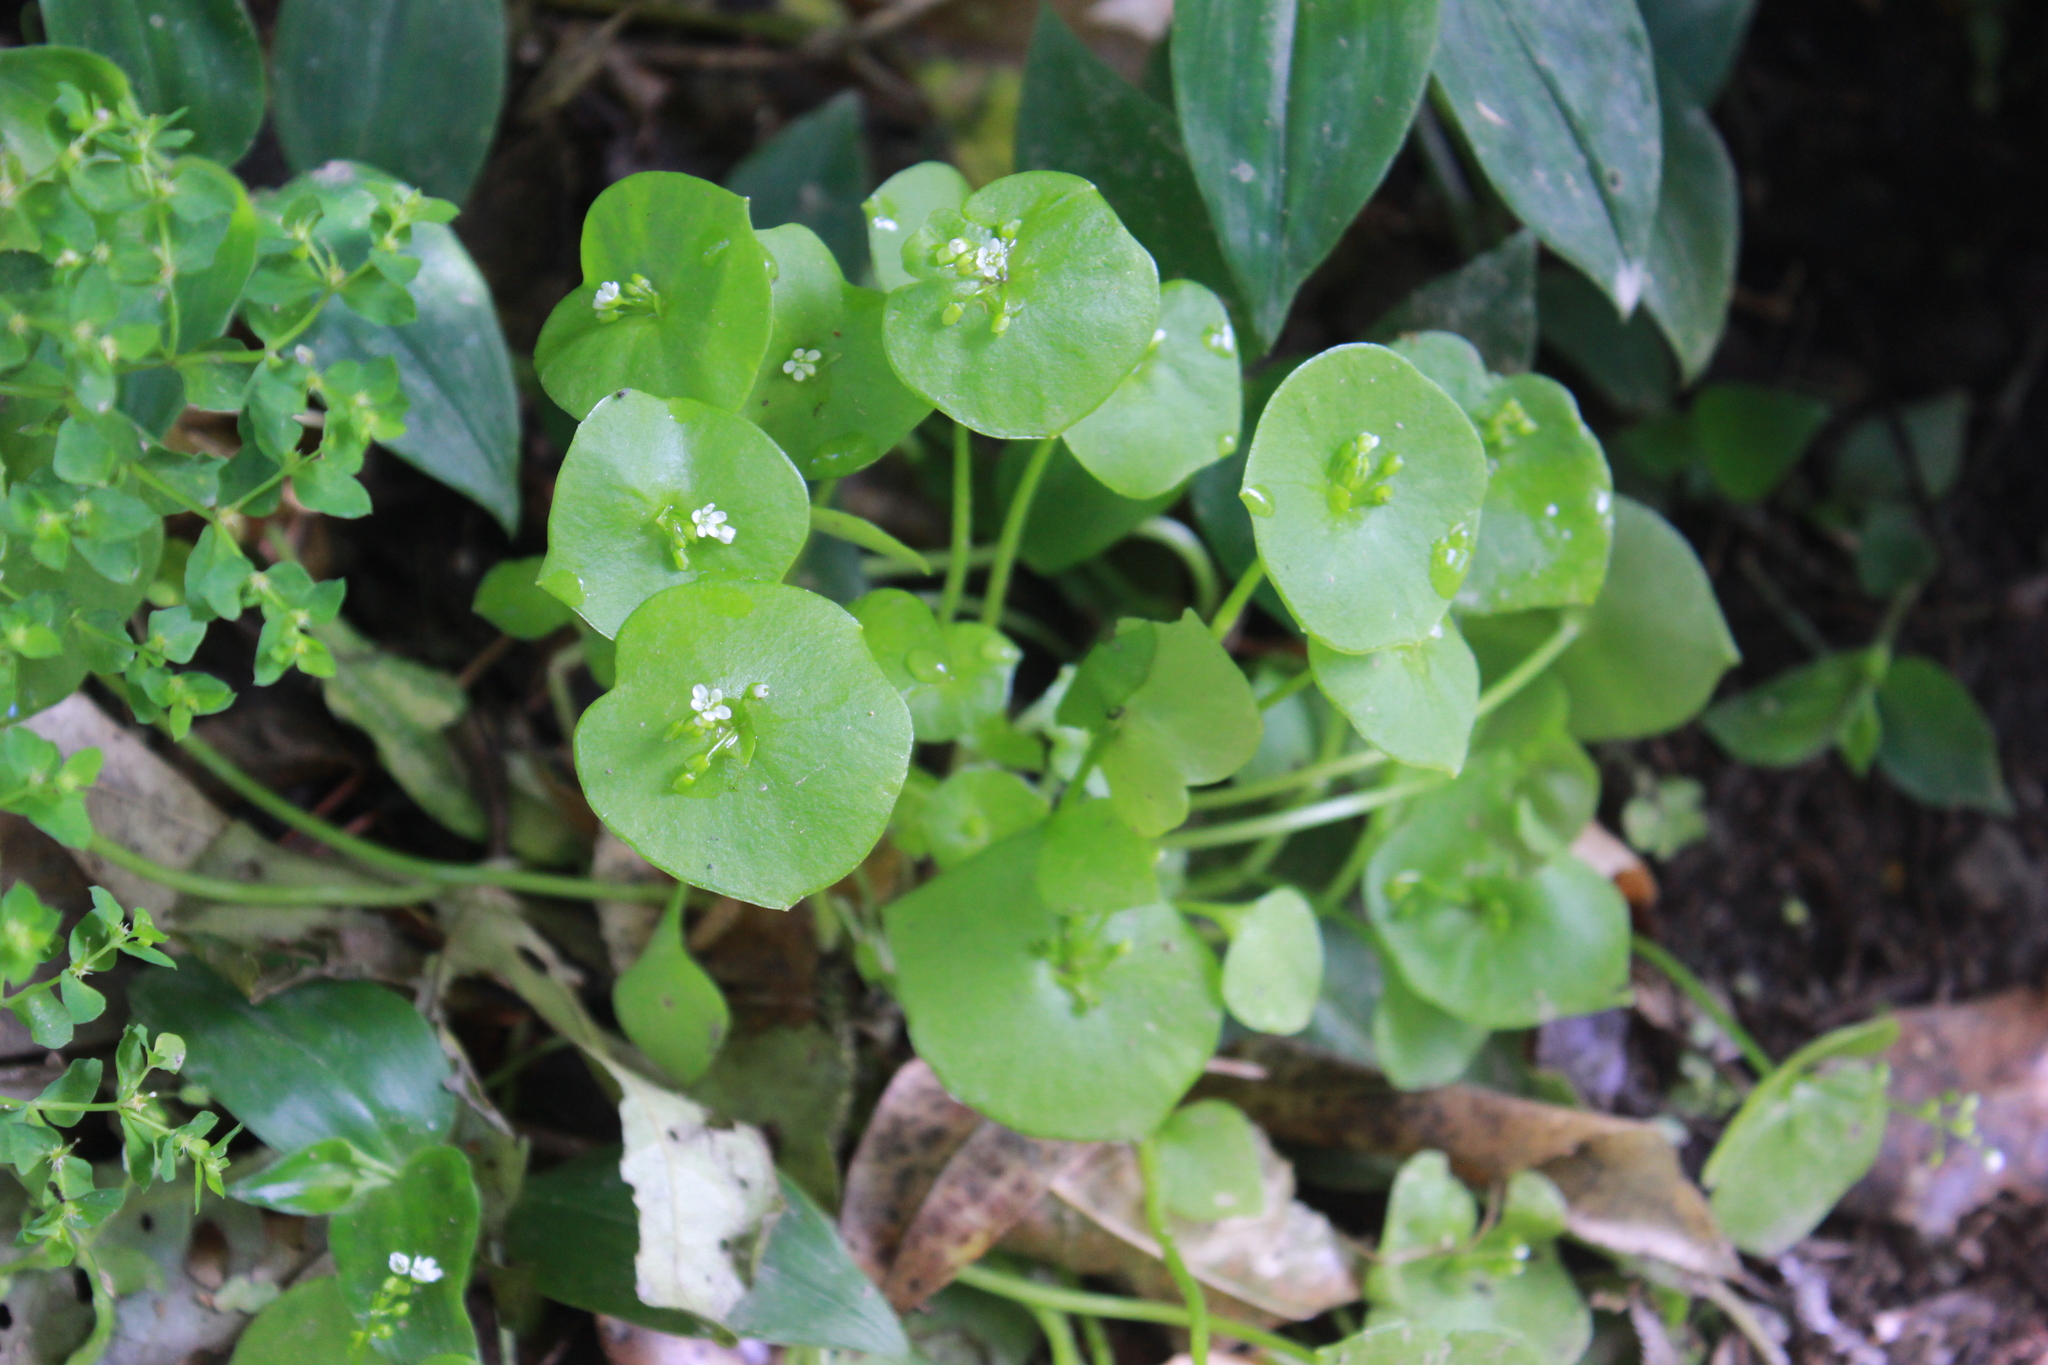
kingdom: Plantae
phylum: Tracheophyta
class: Magnoliopsida
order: Caryophyllales
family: Montiaceae
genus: Claytonia
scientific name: Claytonia perfoliata
